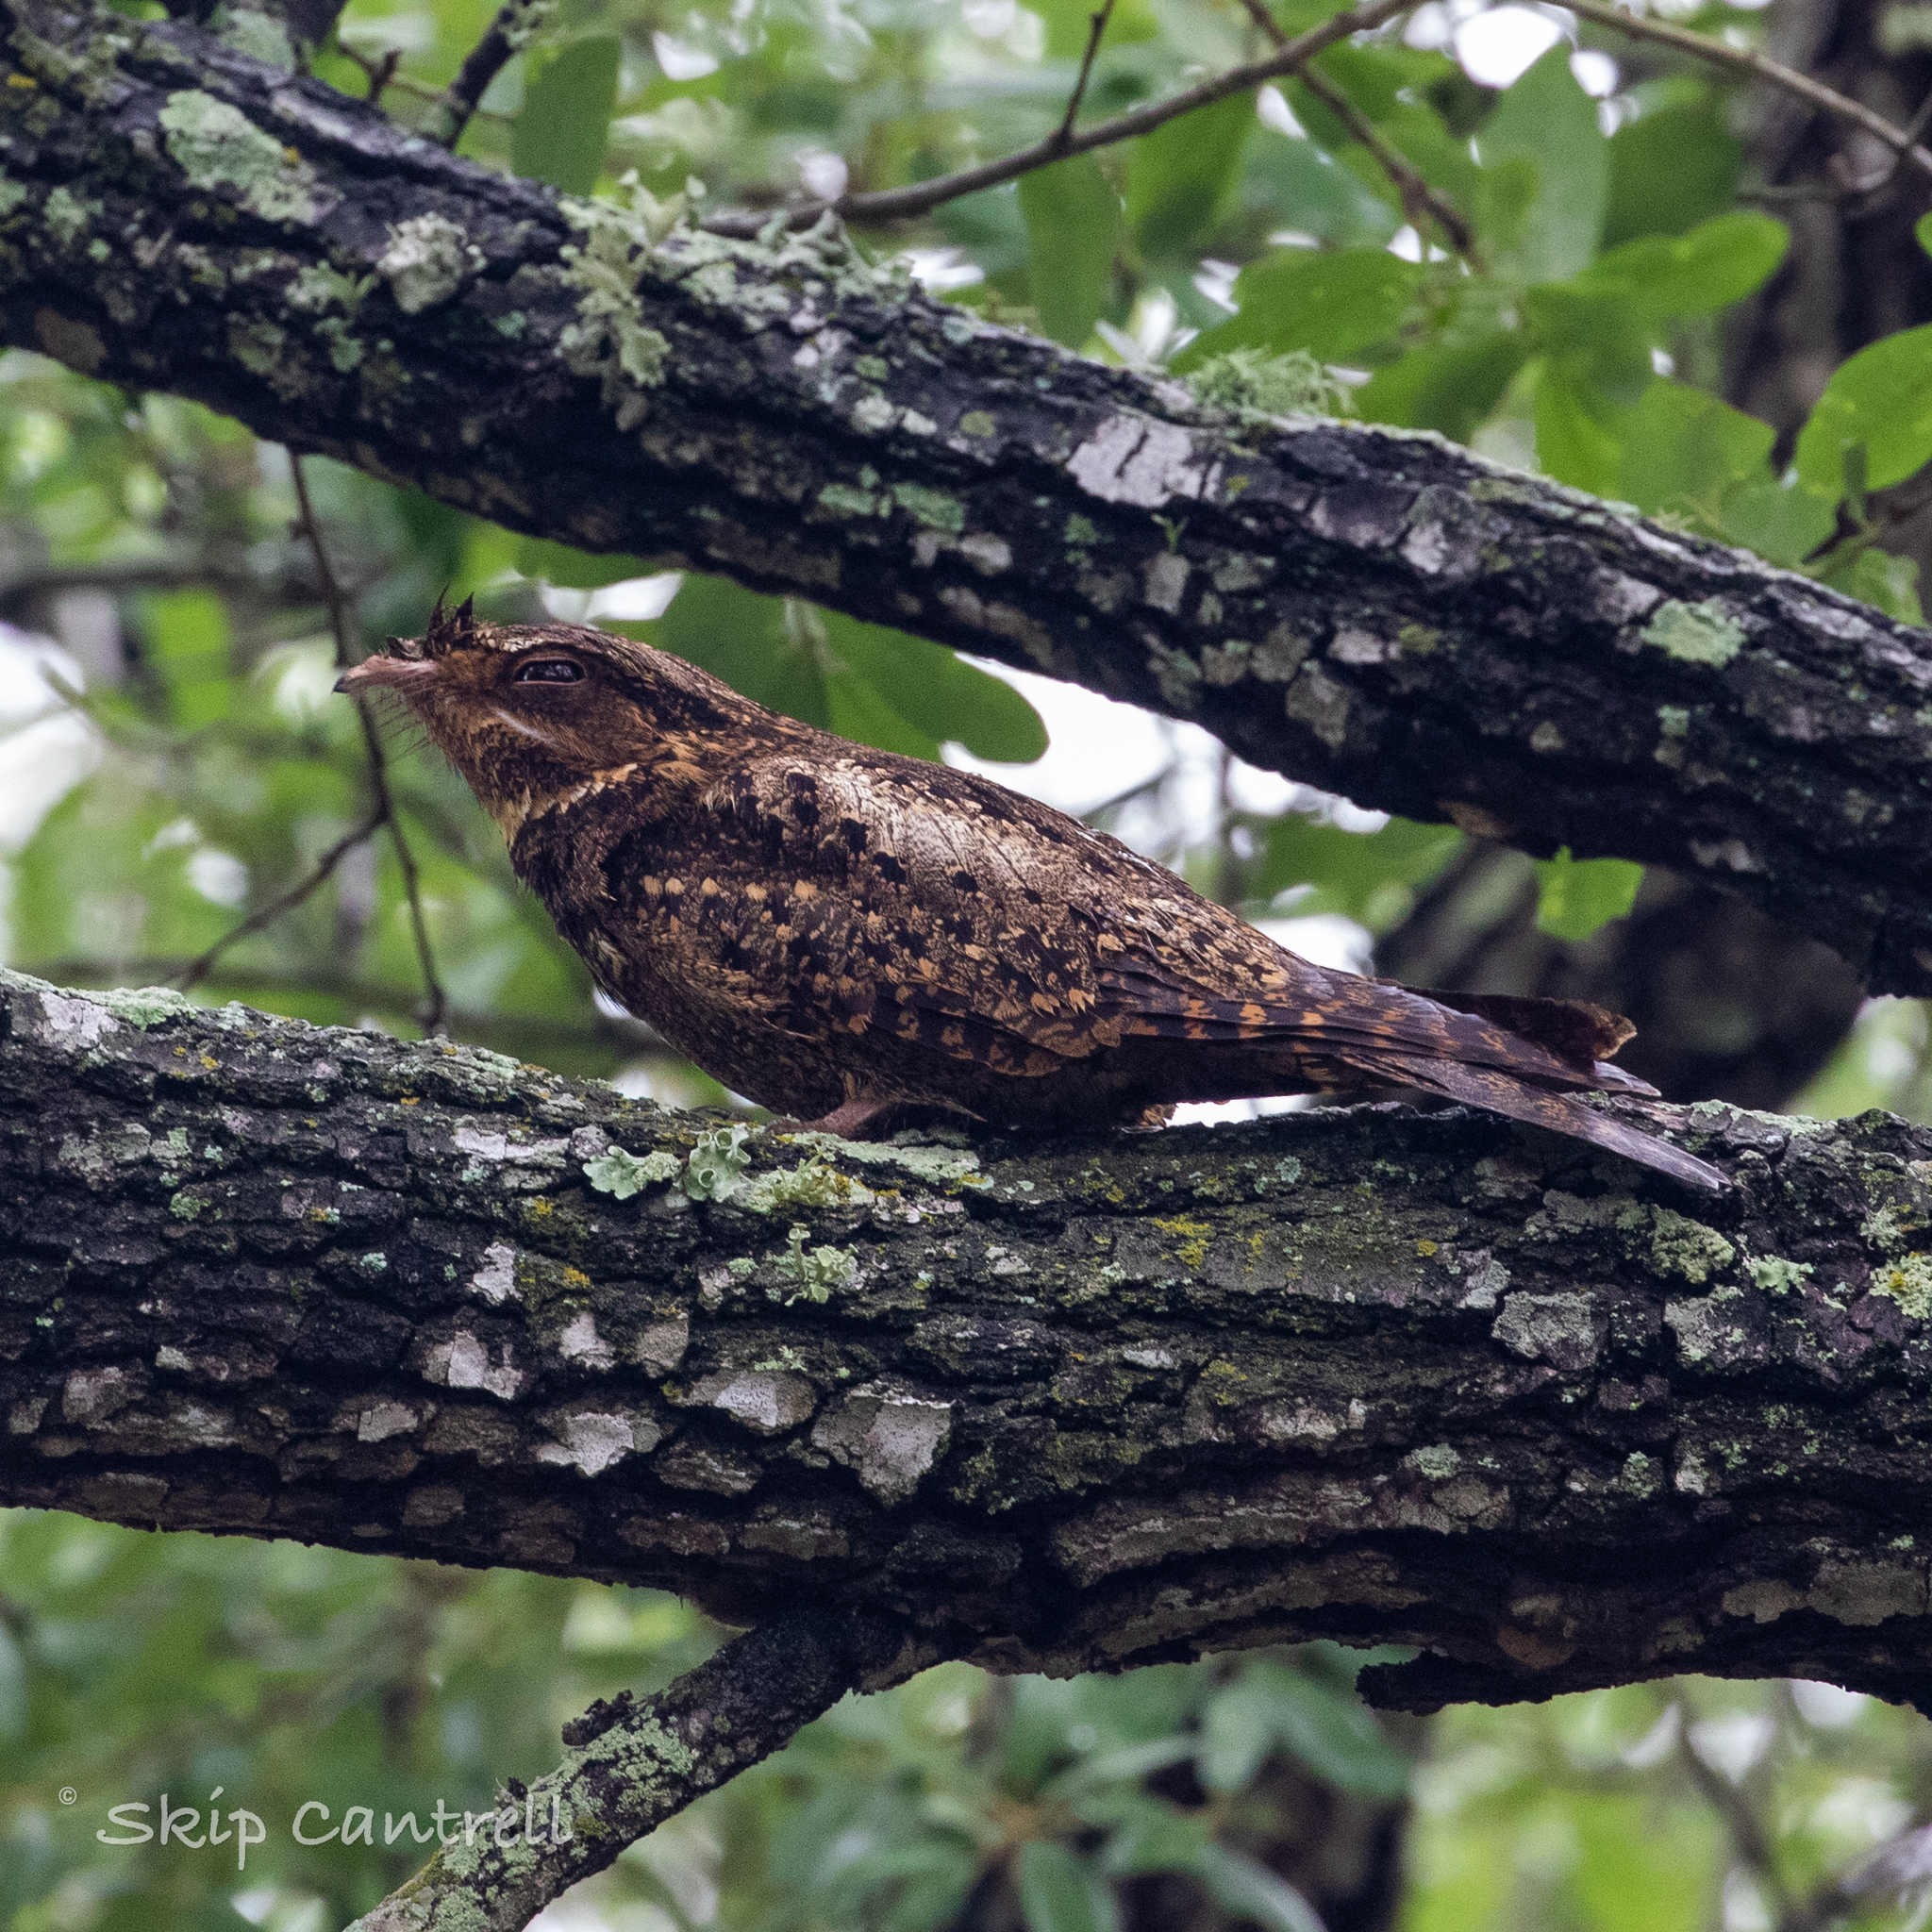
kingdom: Animalia
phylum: Chordata
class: Aves
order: Caprimulgiformes
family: Caprimulgidae
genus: Antrostomus
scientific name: Antrostomus carolinensis
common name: Chuck-will's-widow
